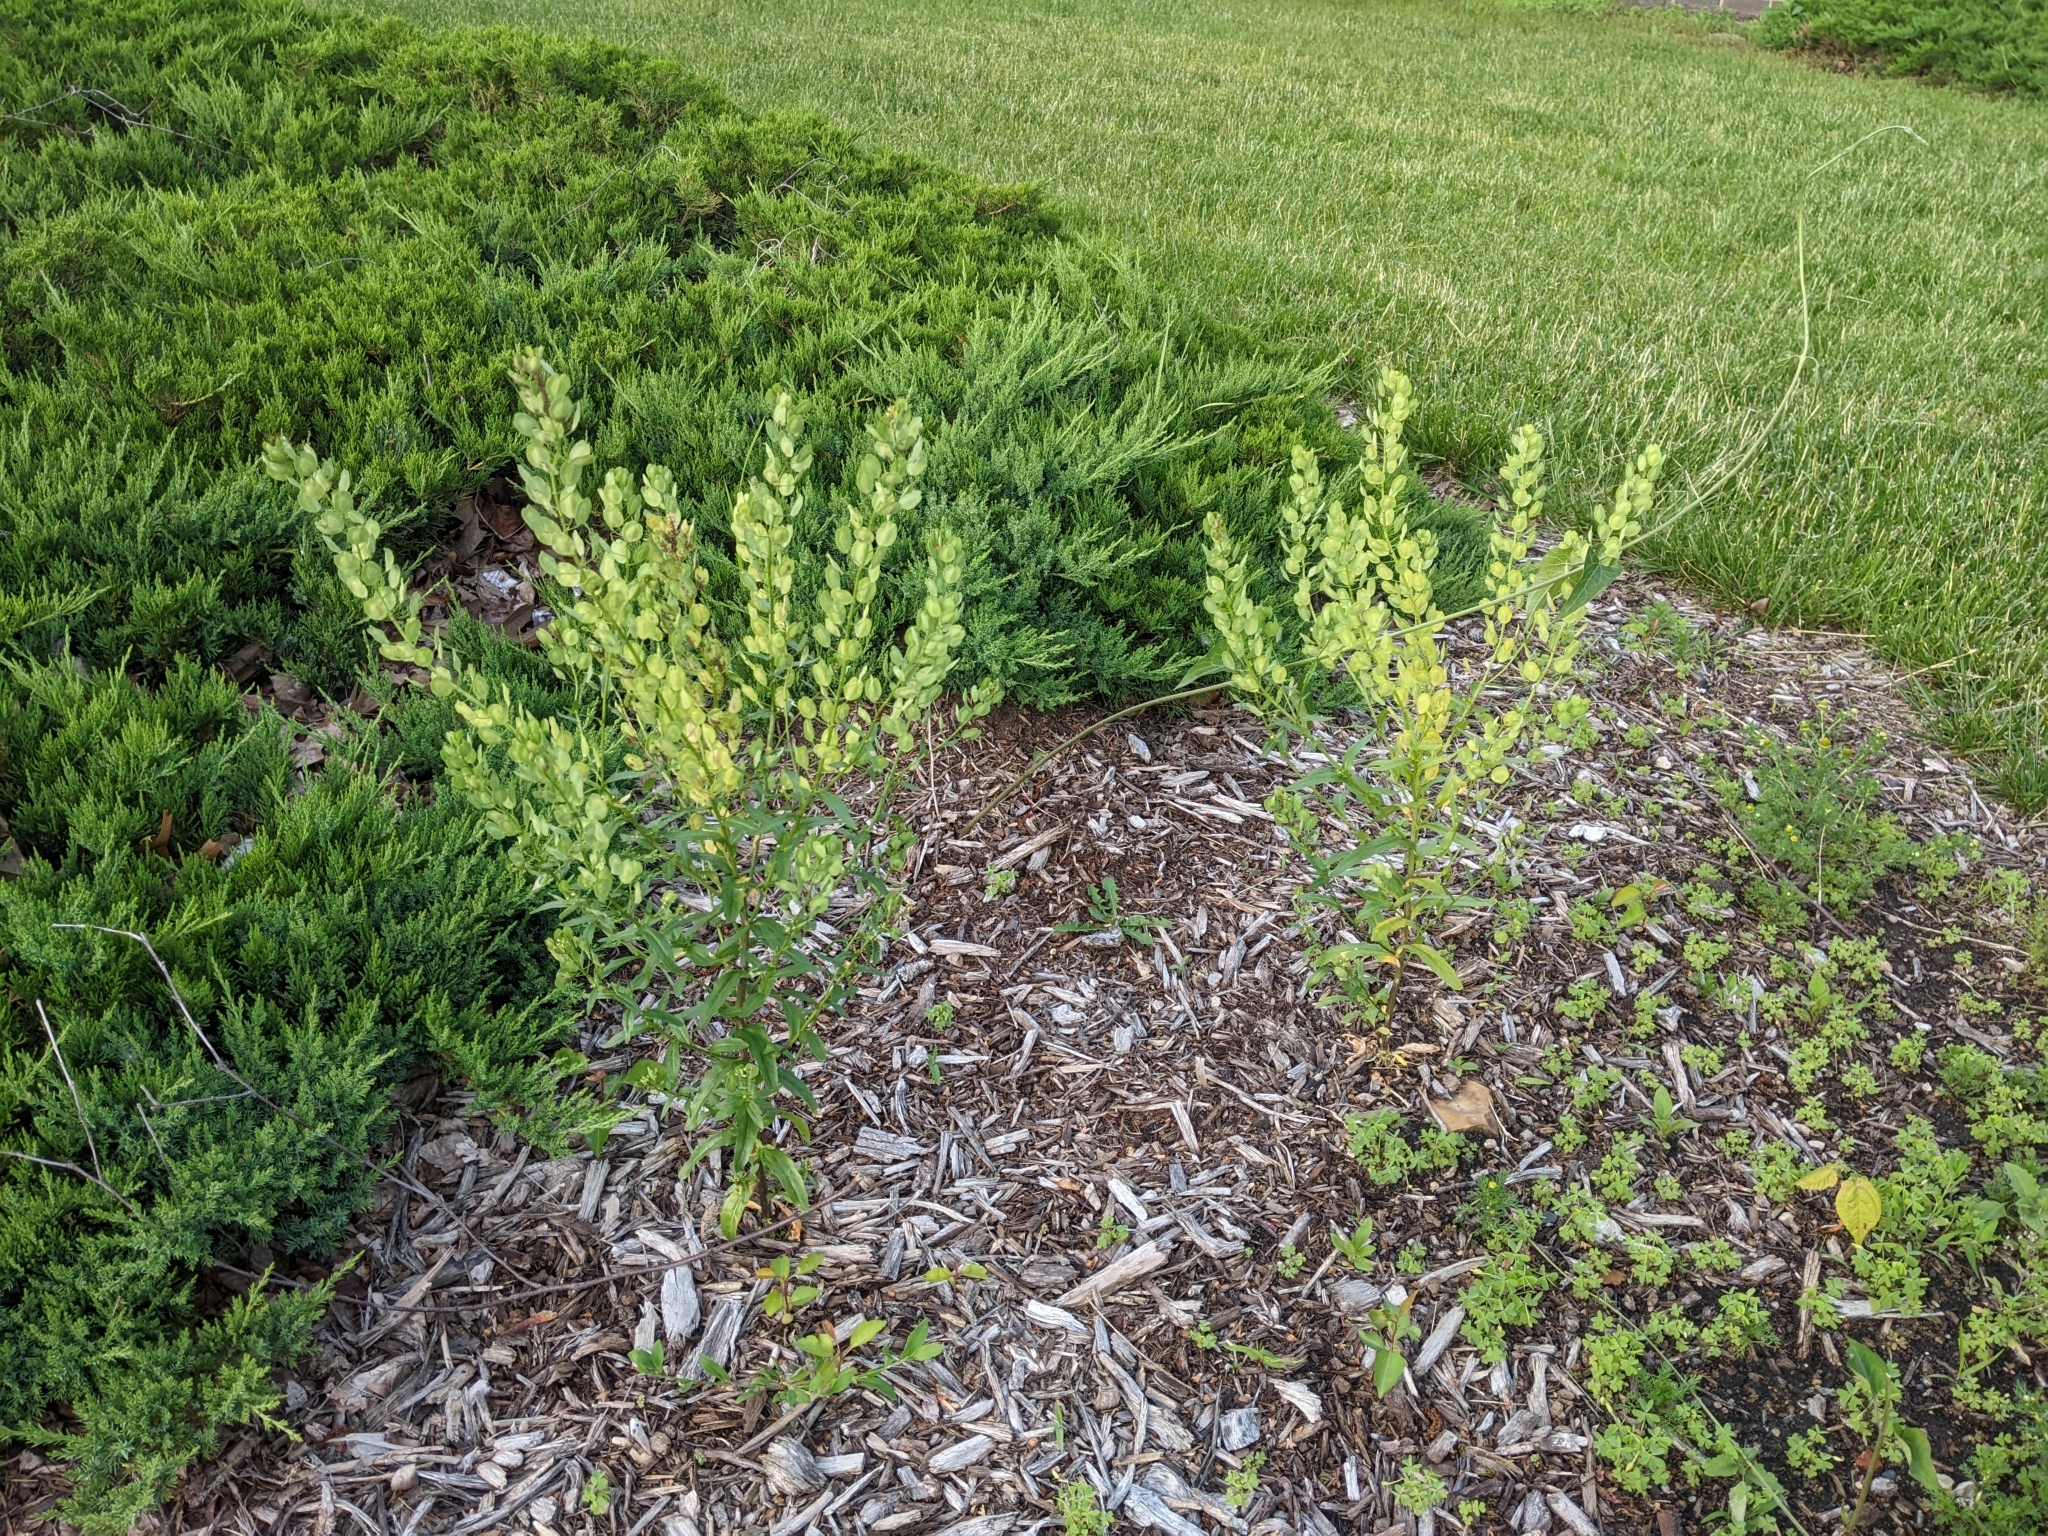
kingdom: Plantae
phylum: Tracheophyta
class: Magnoliopsida
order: Brassicales
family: Brassicaceae
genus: Thlaspi
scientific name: Thlaspi arvense
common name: Field pennycress
